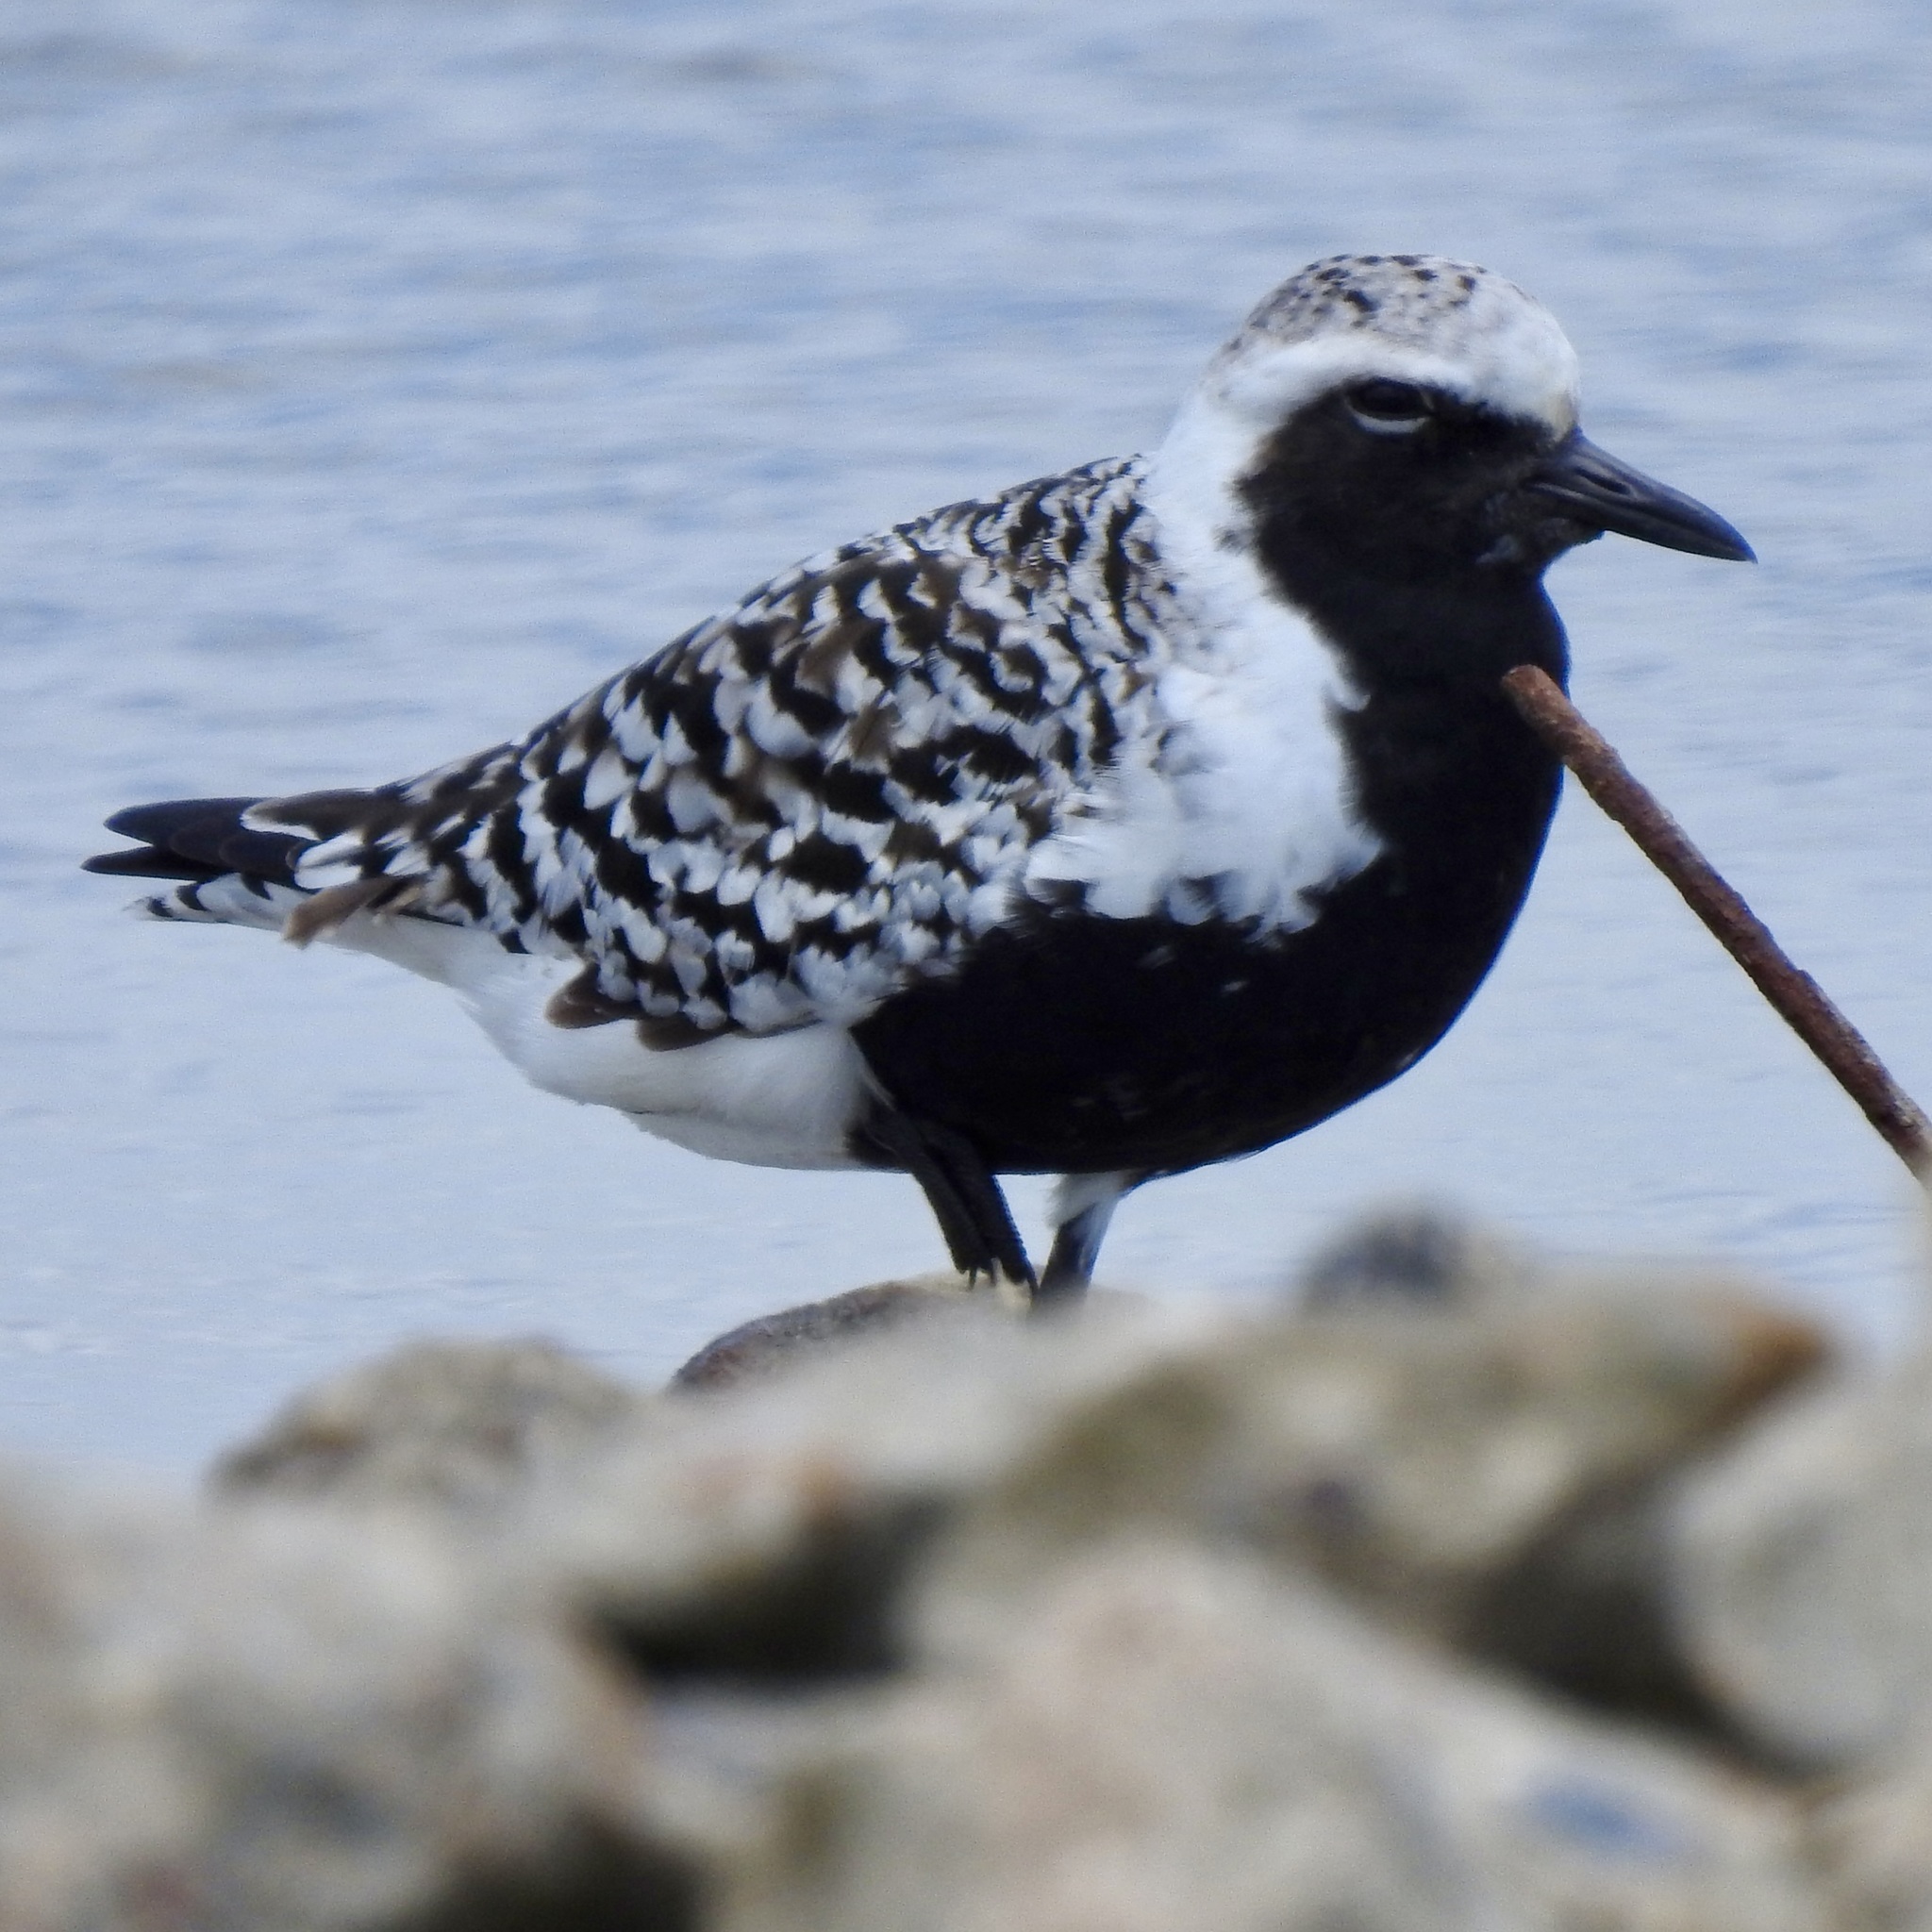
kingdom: Animalia
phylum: Chordata
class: Aves
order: Charadriiformes
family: Charadriidae
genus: Pluvialis
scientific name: Pluvialis squatarola
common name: Grey plover
